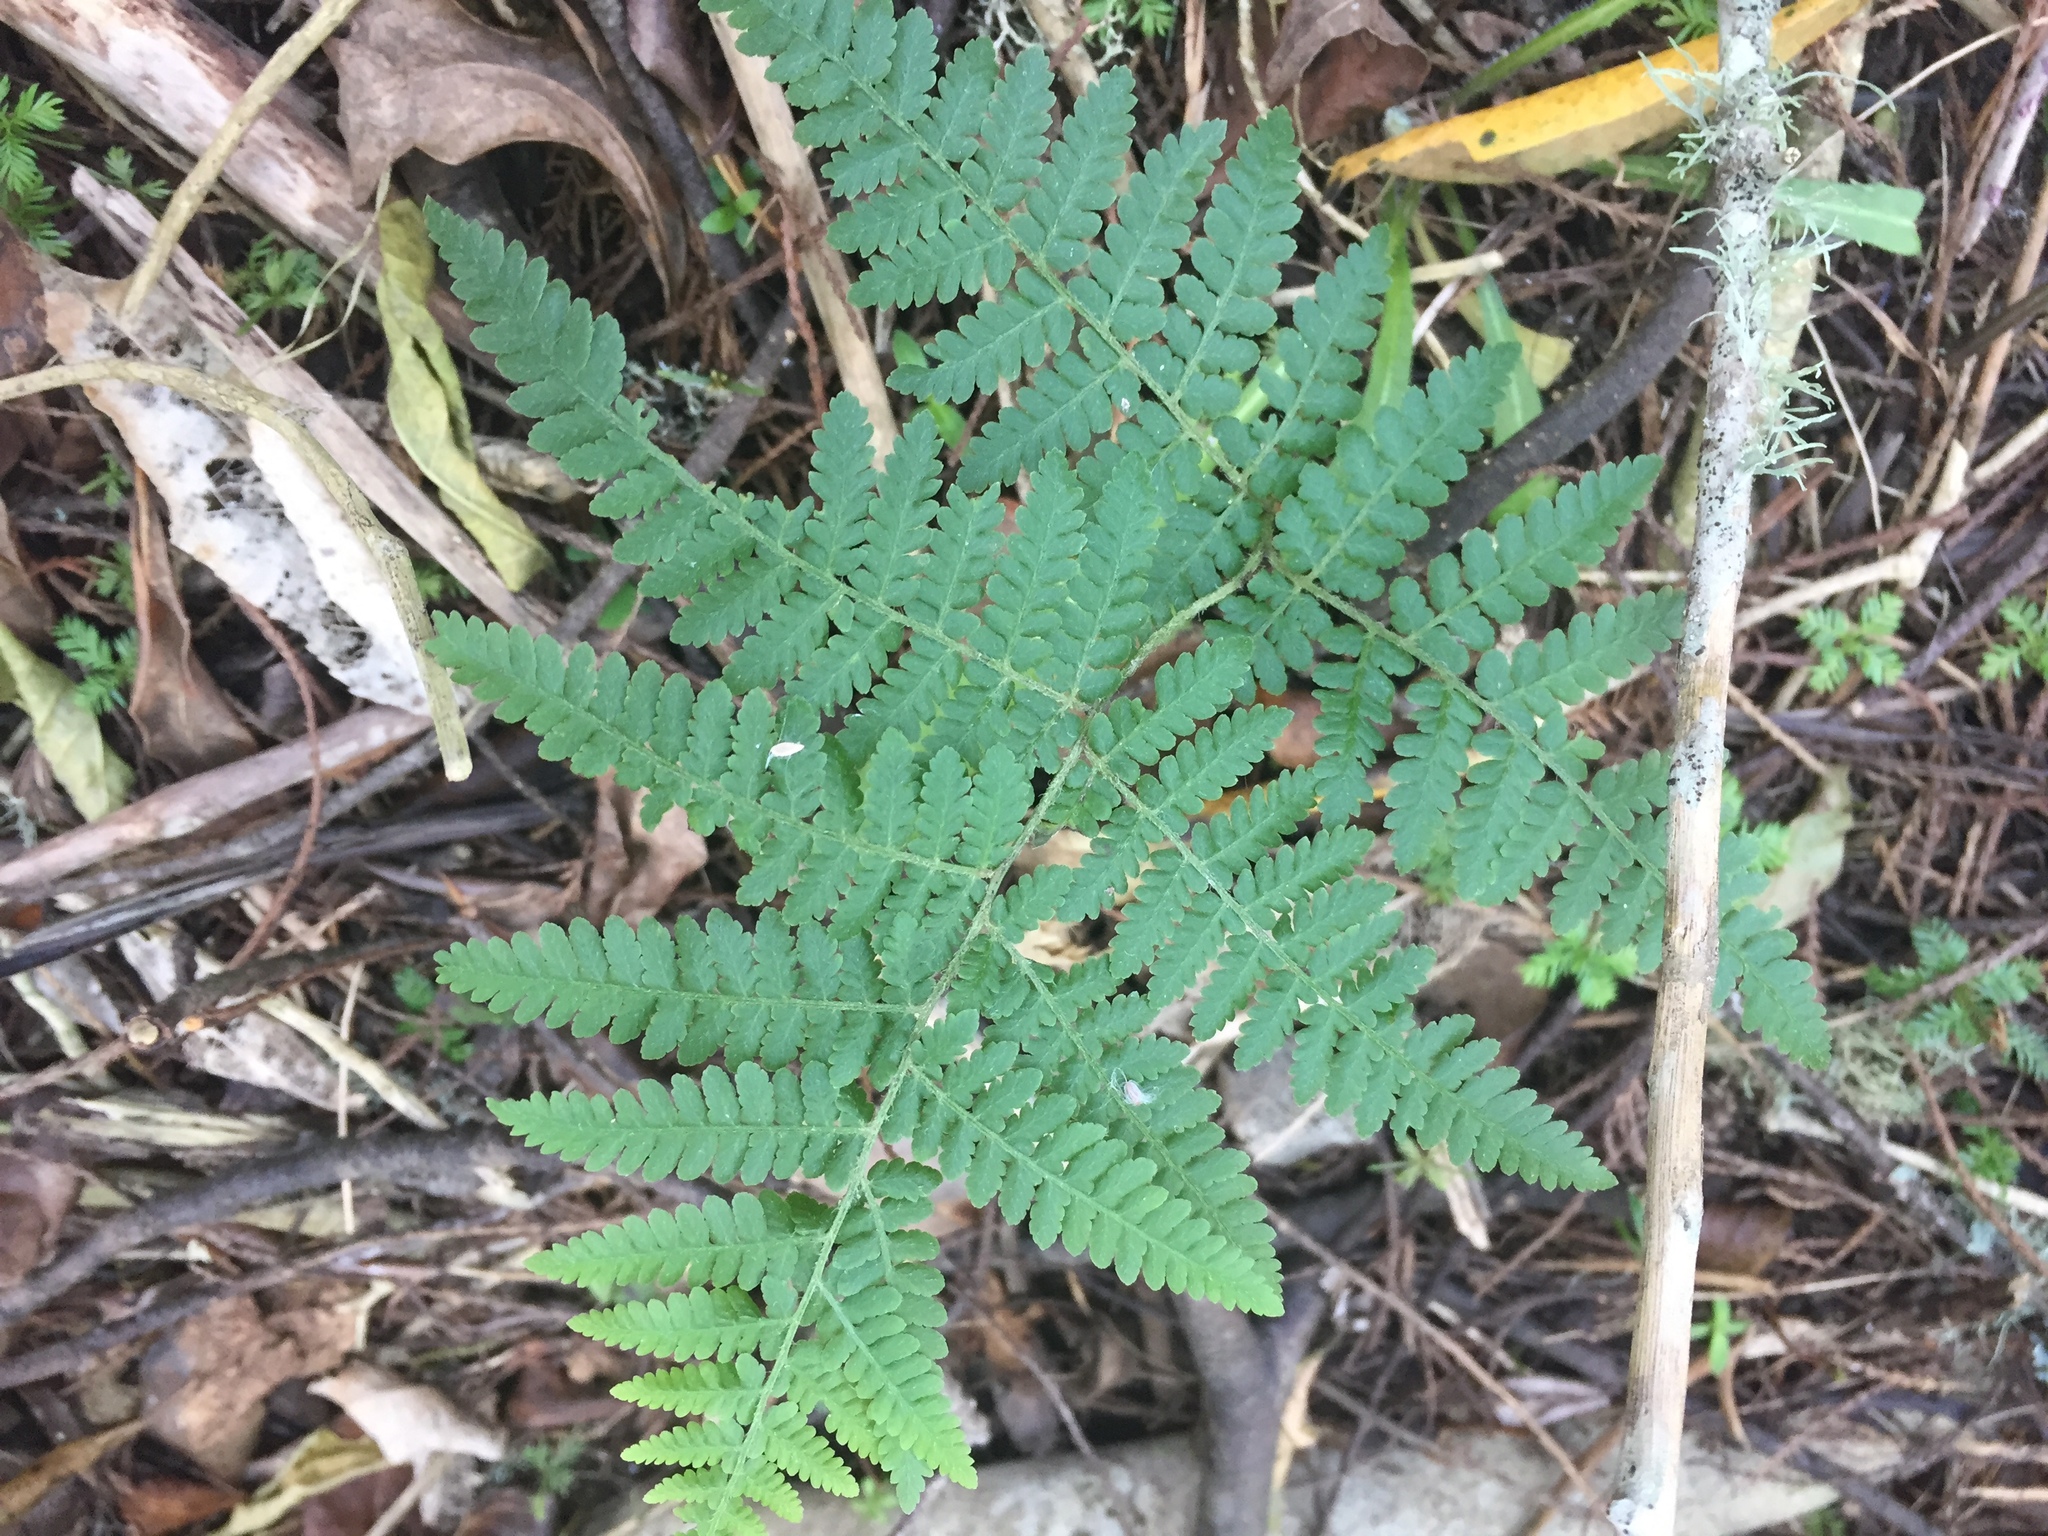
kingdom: Plantae
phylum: Tracheophyta
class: Polypodiopsida
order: Polypodiales
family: Dennstaedtiaceae
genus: Hypolepis
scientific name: Hypolepis ambigua
